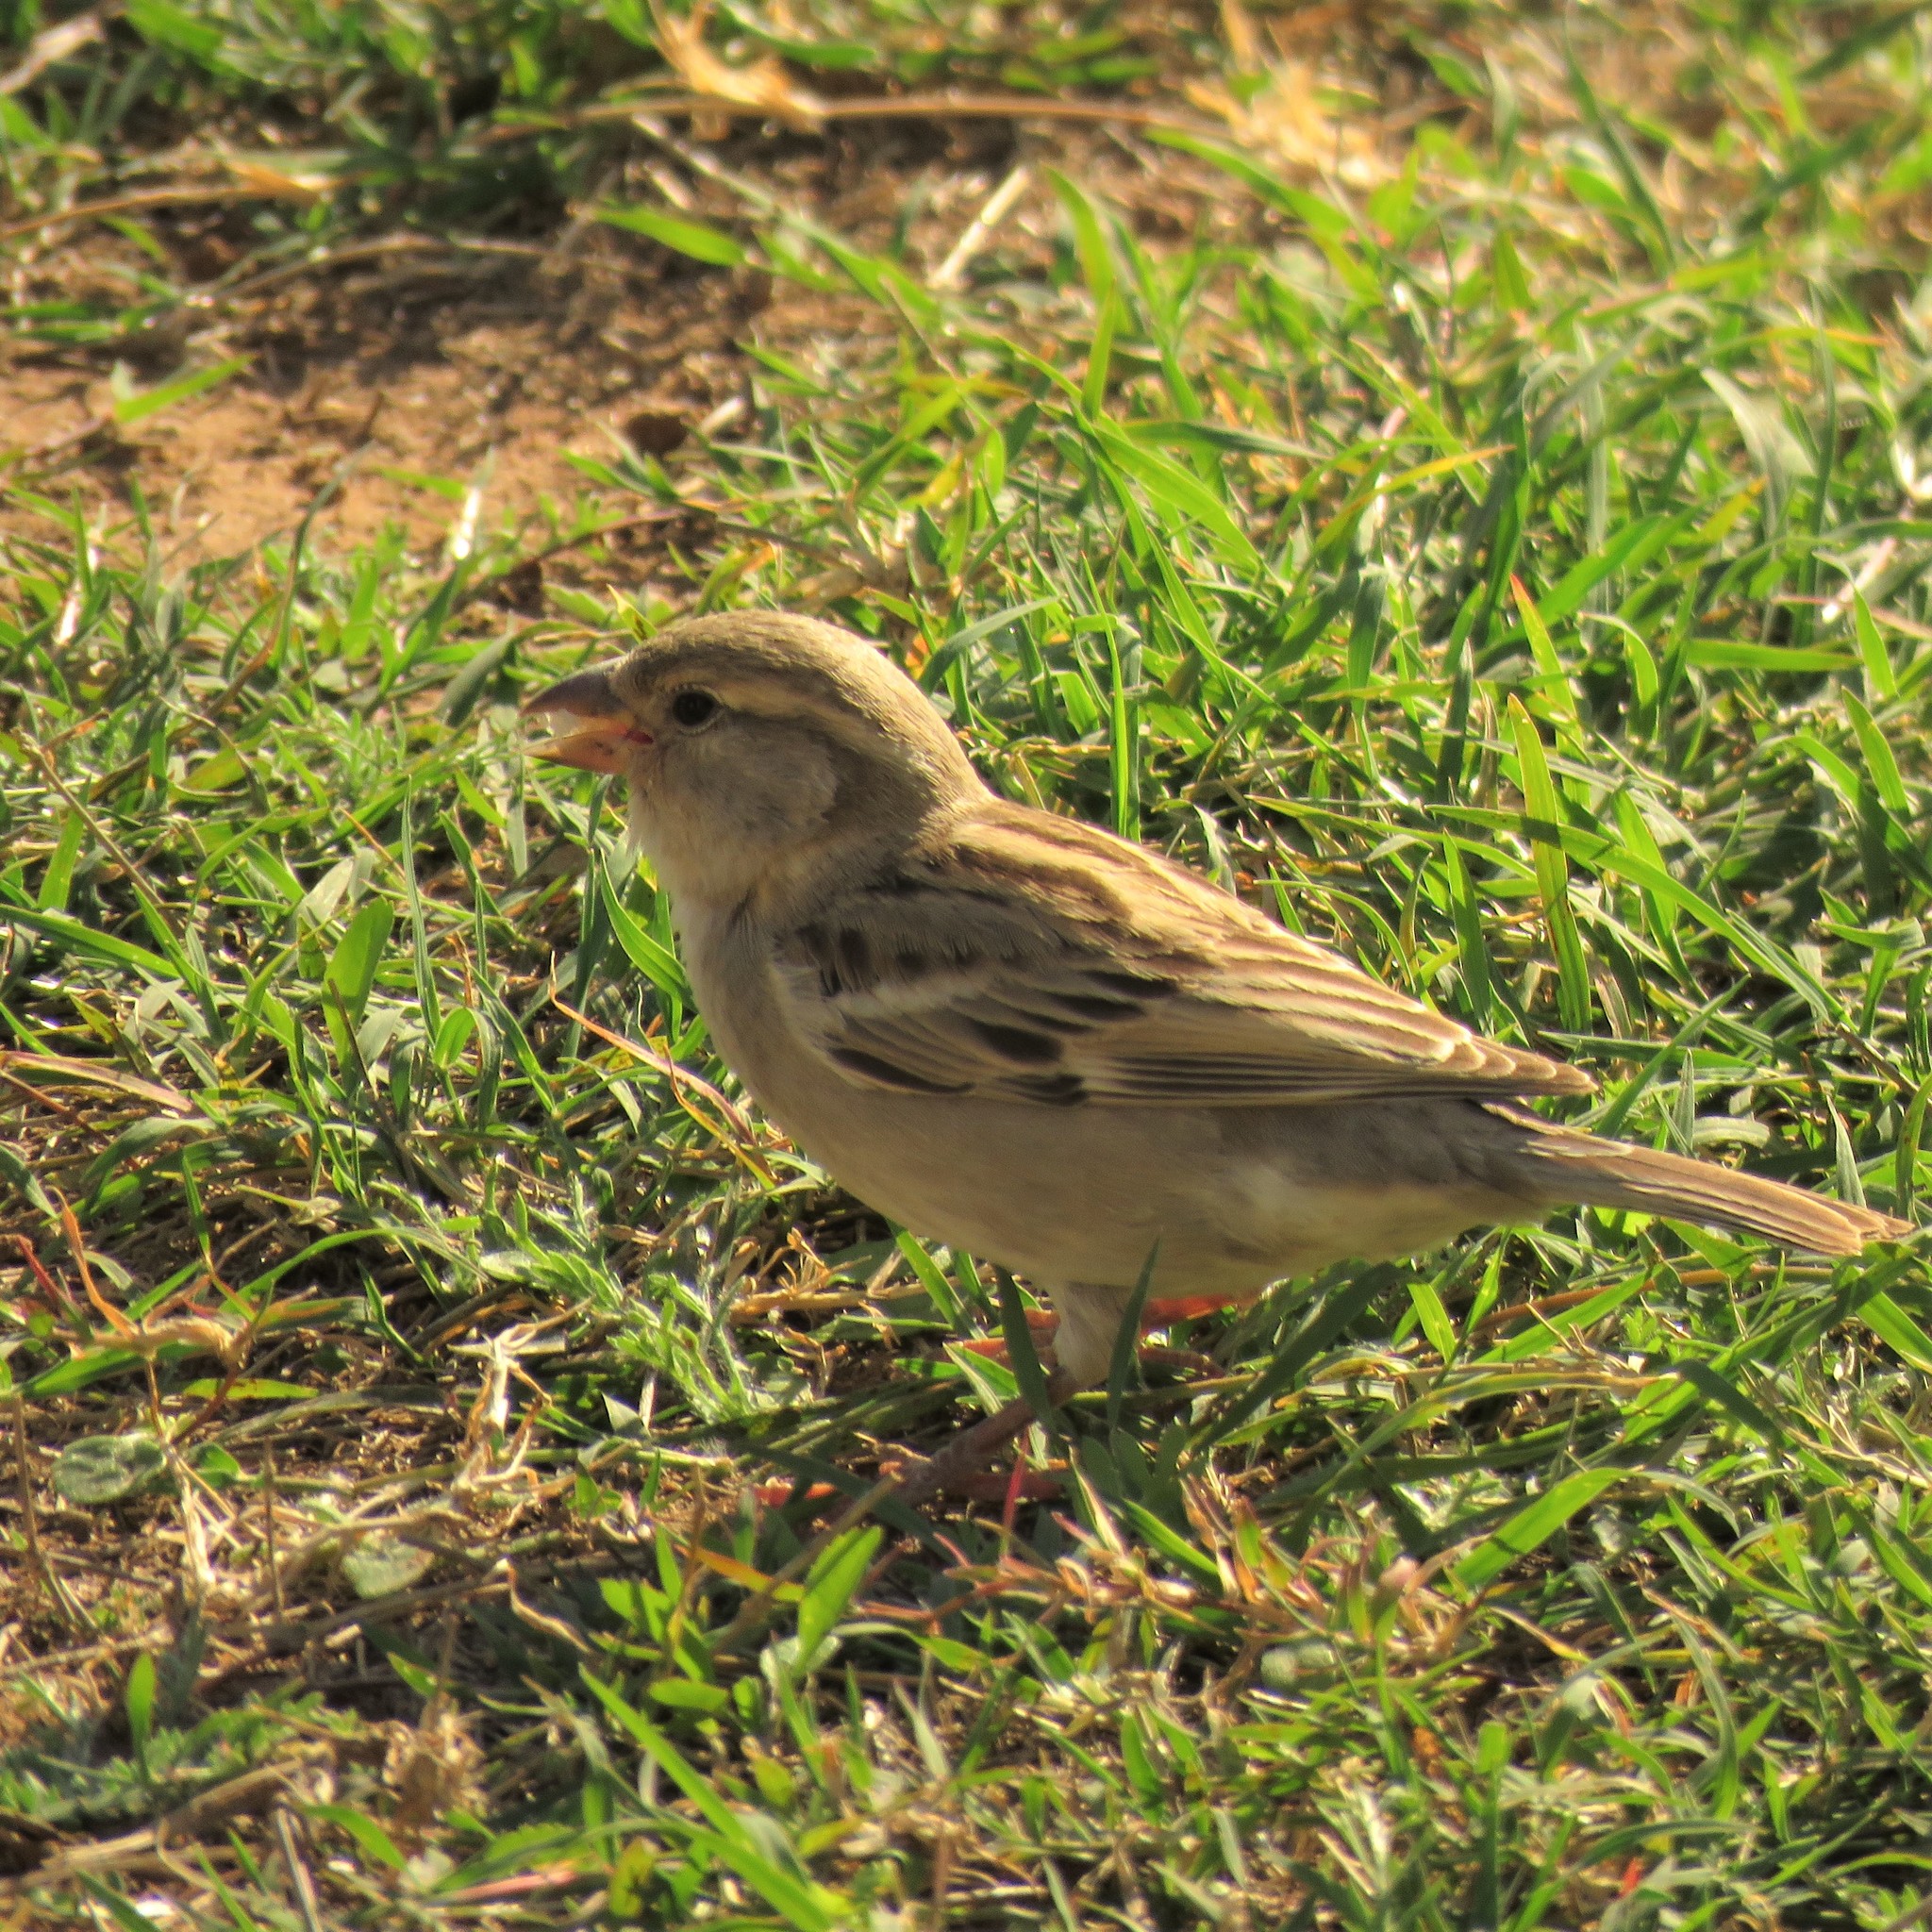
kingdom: Animalia
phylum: Chordata
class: Aves
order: Passeriformes
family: Passeridae
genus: Passer
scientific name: Passer domesticus
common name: House sparrow
